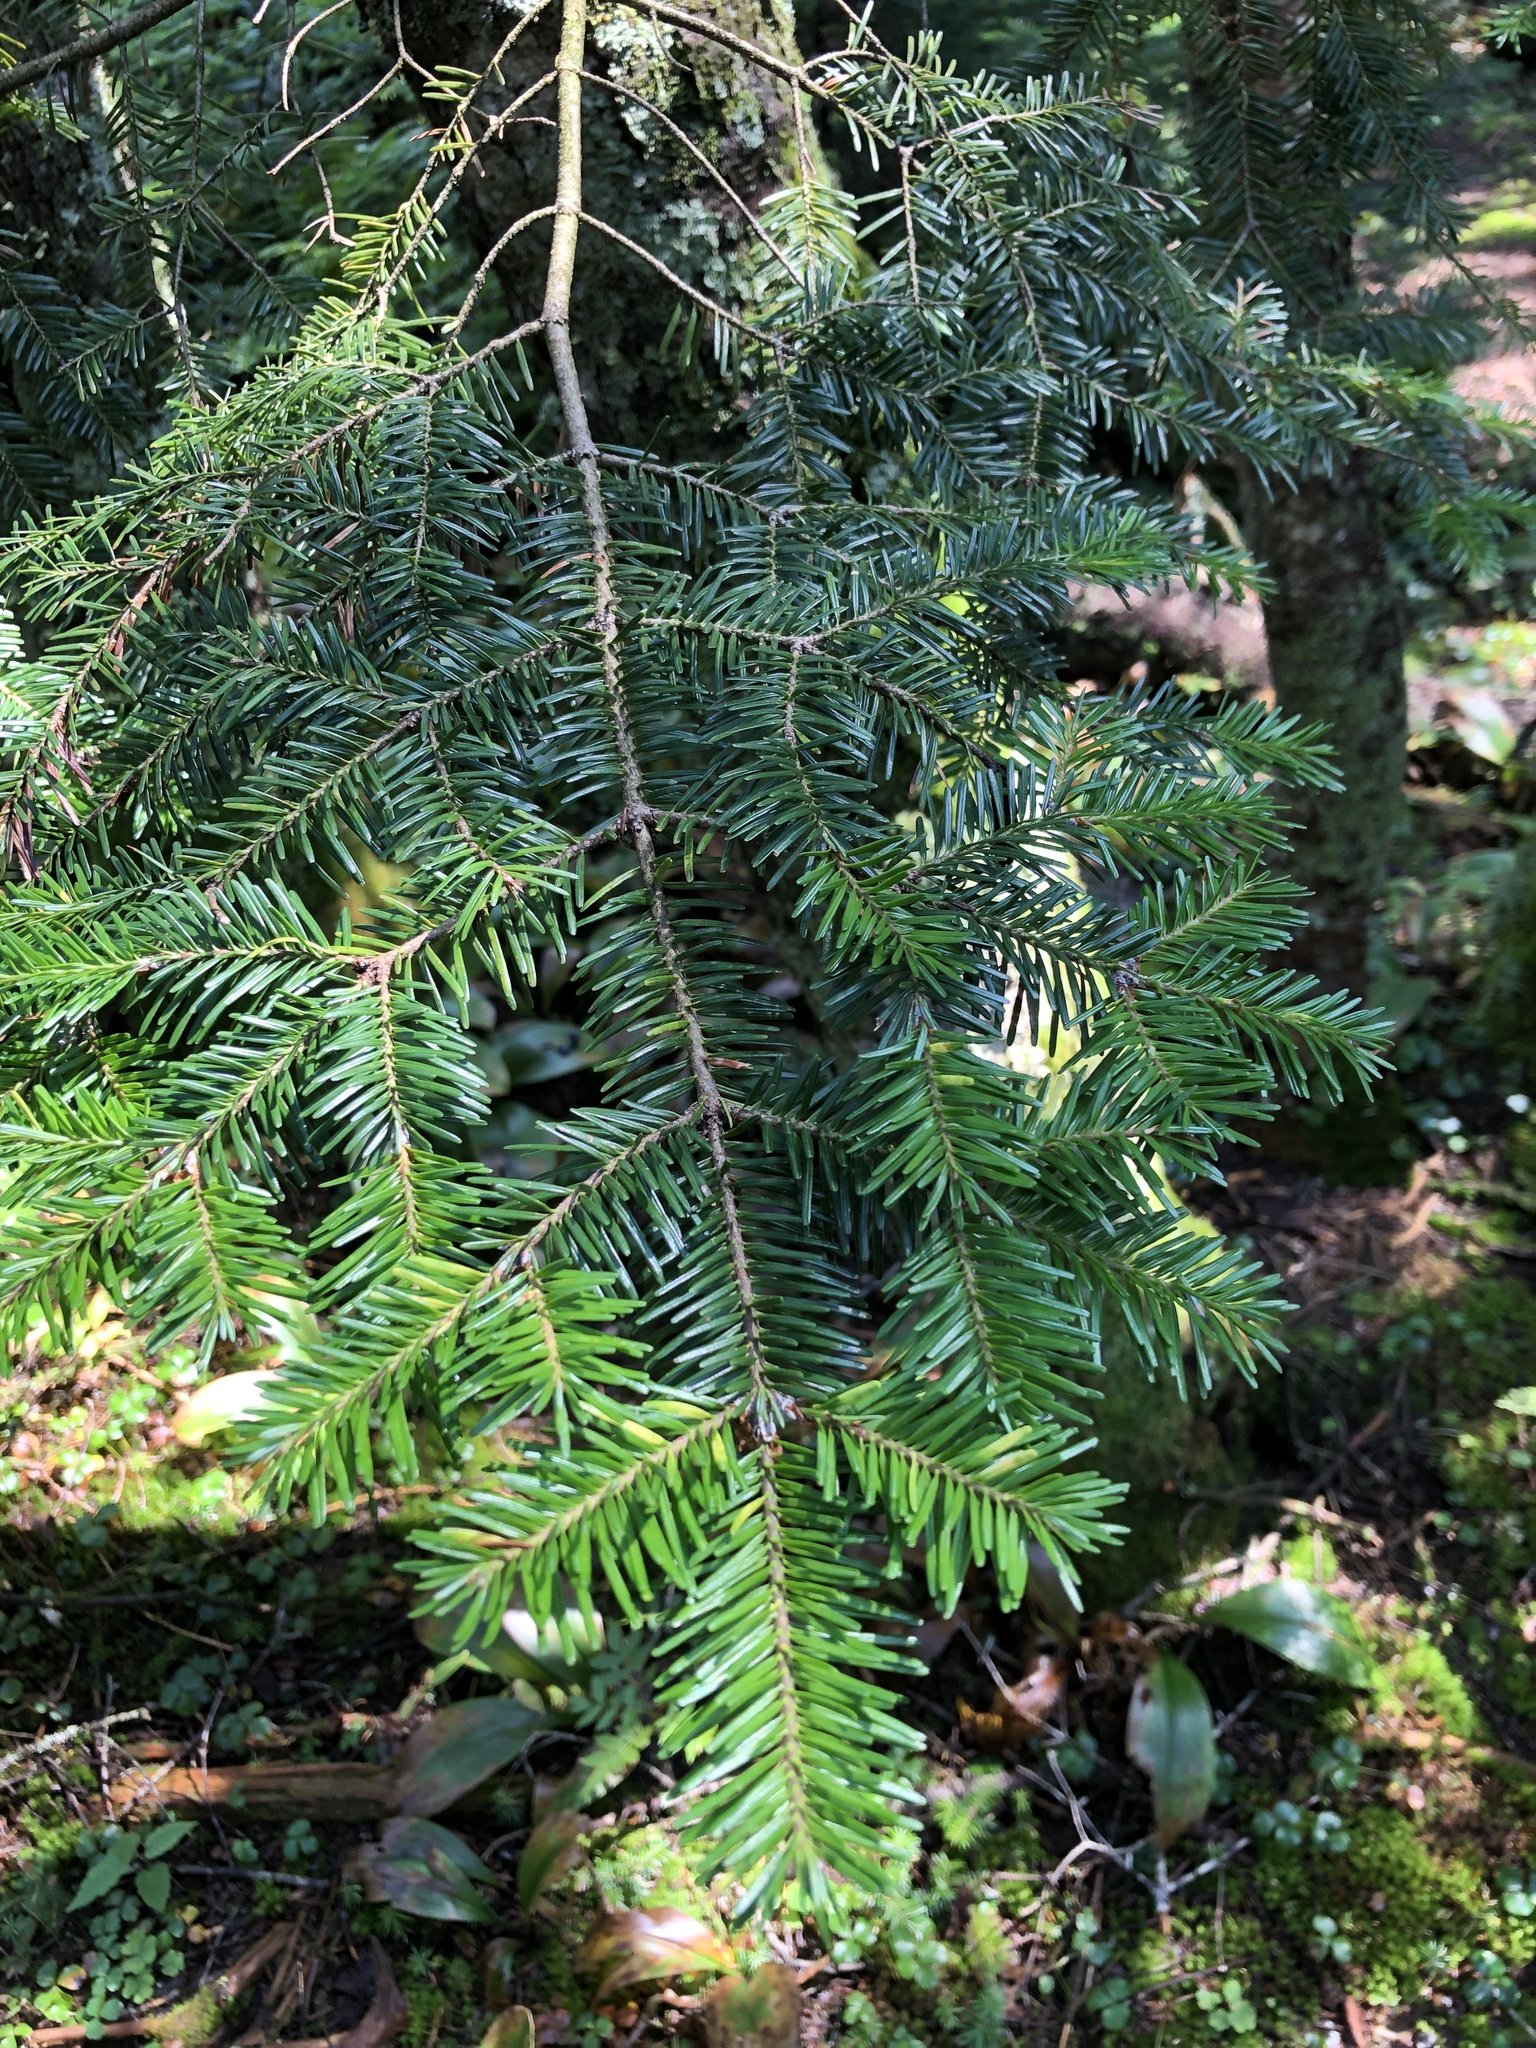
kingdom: Plantae
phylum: Tracheophyta
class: Pinopsida
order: Pinales
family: Pinaceae
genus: Abies
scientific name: Abies balsamea
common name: Balsam fir
